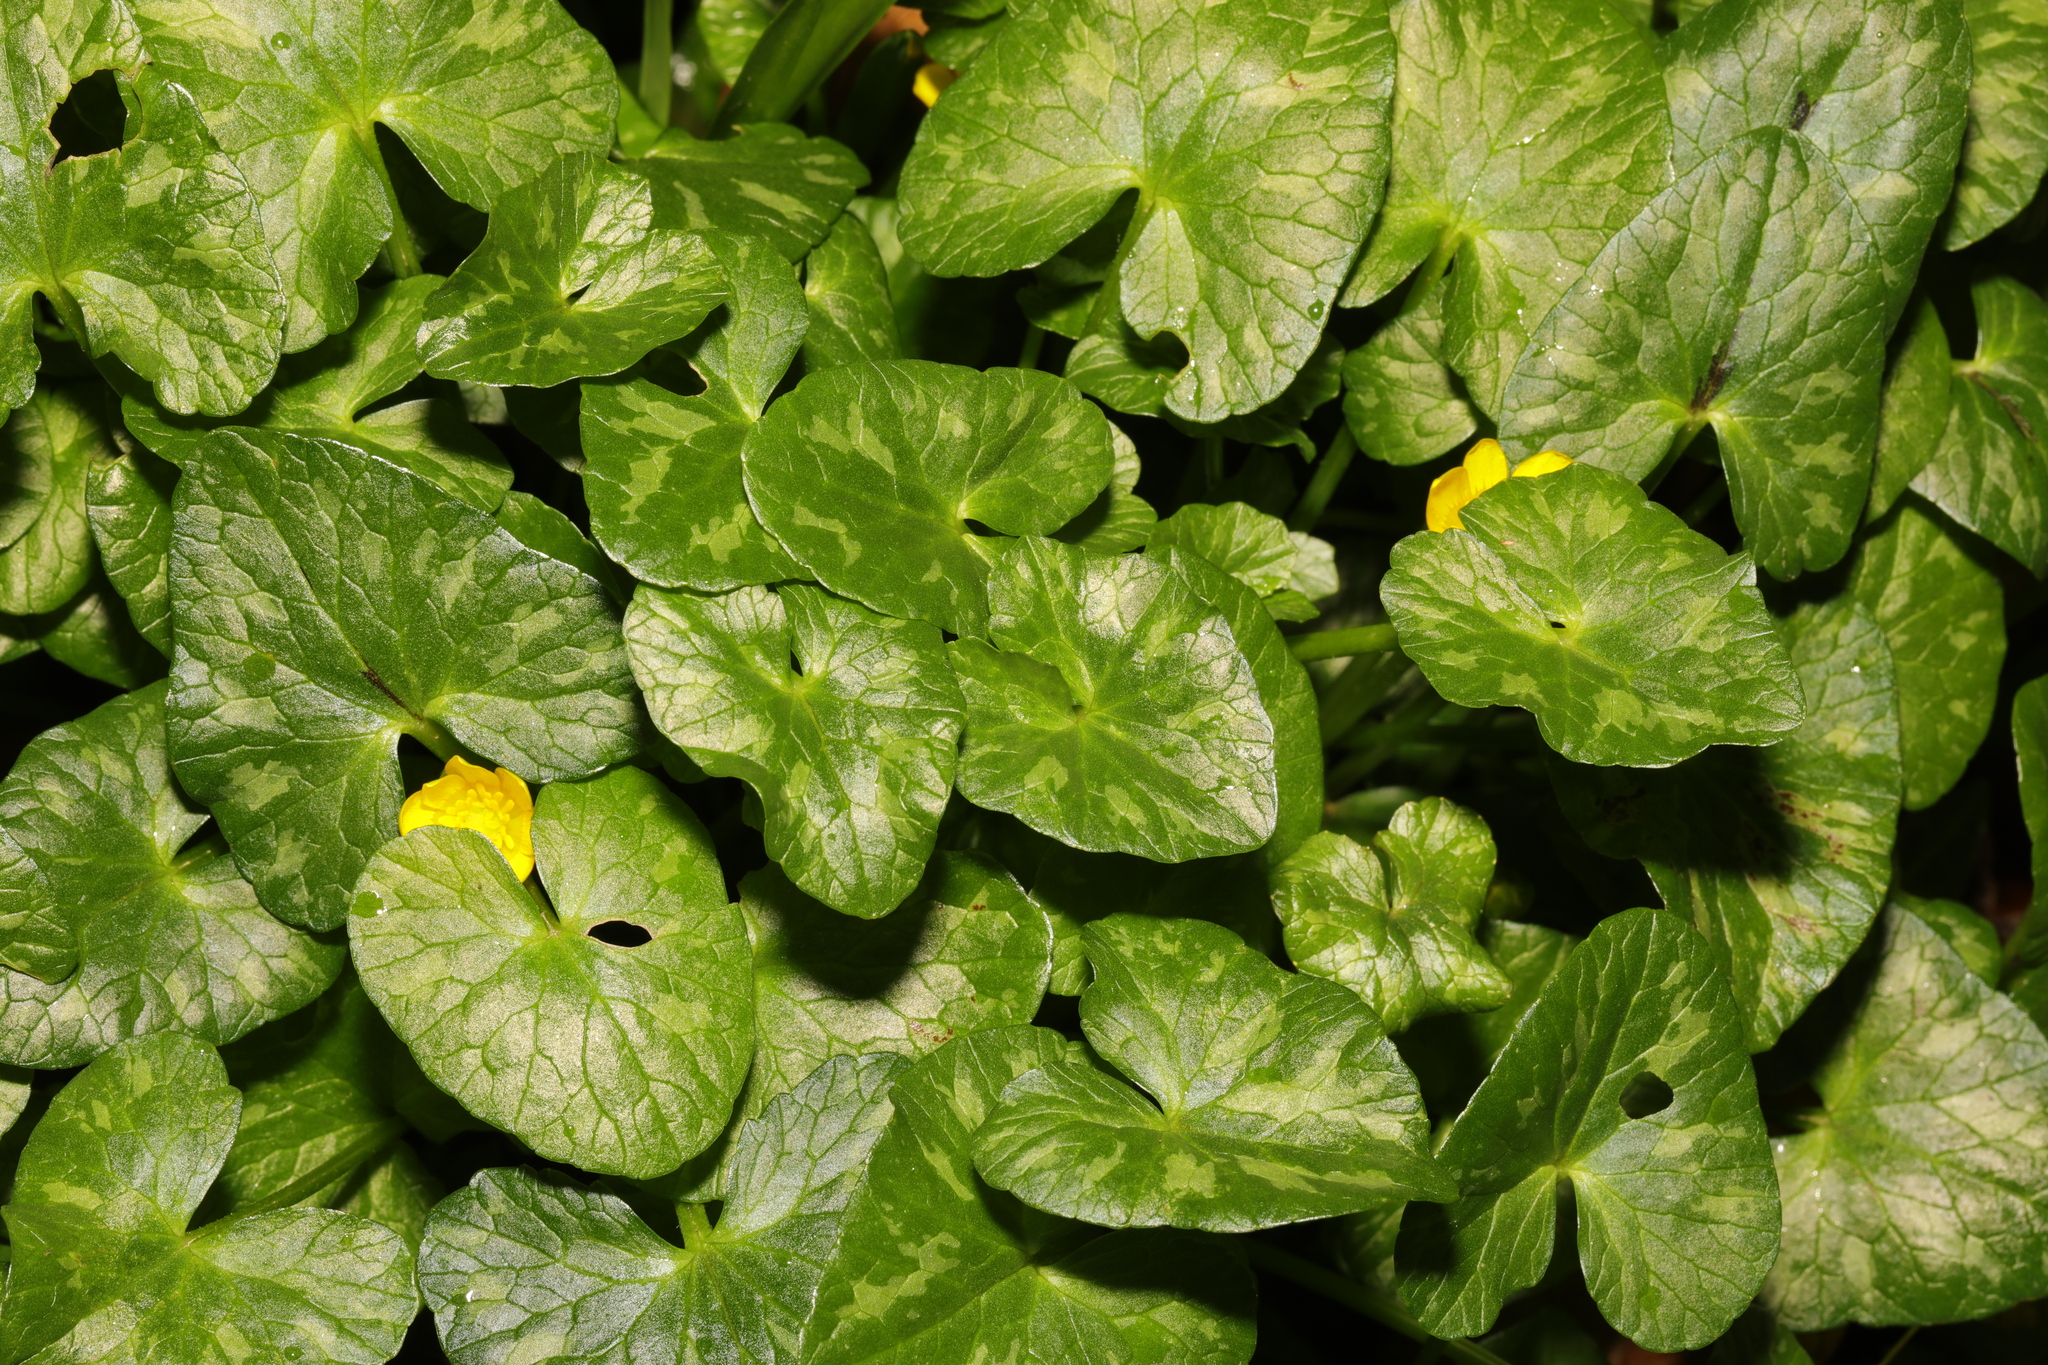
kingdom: Plantae
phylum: Tracheophyta
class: Magnoliopsida
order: Ranunculales
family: Ranunculaceae
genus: Ficaria
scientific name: Ficaria verna
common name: Lesser celandine
